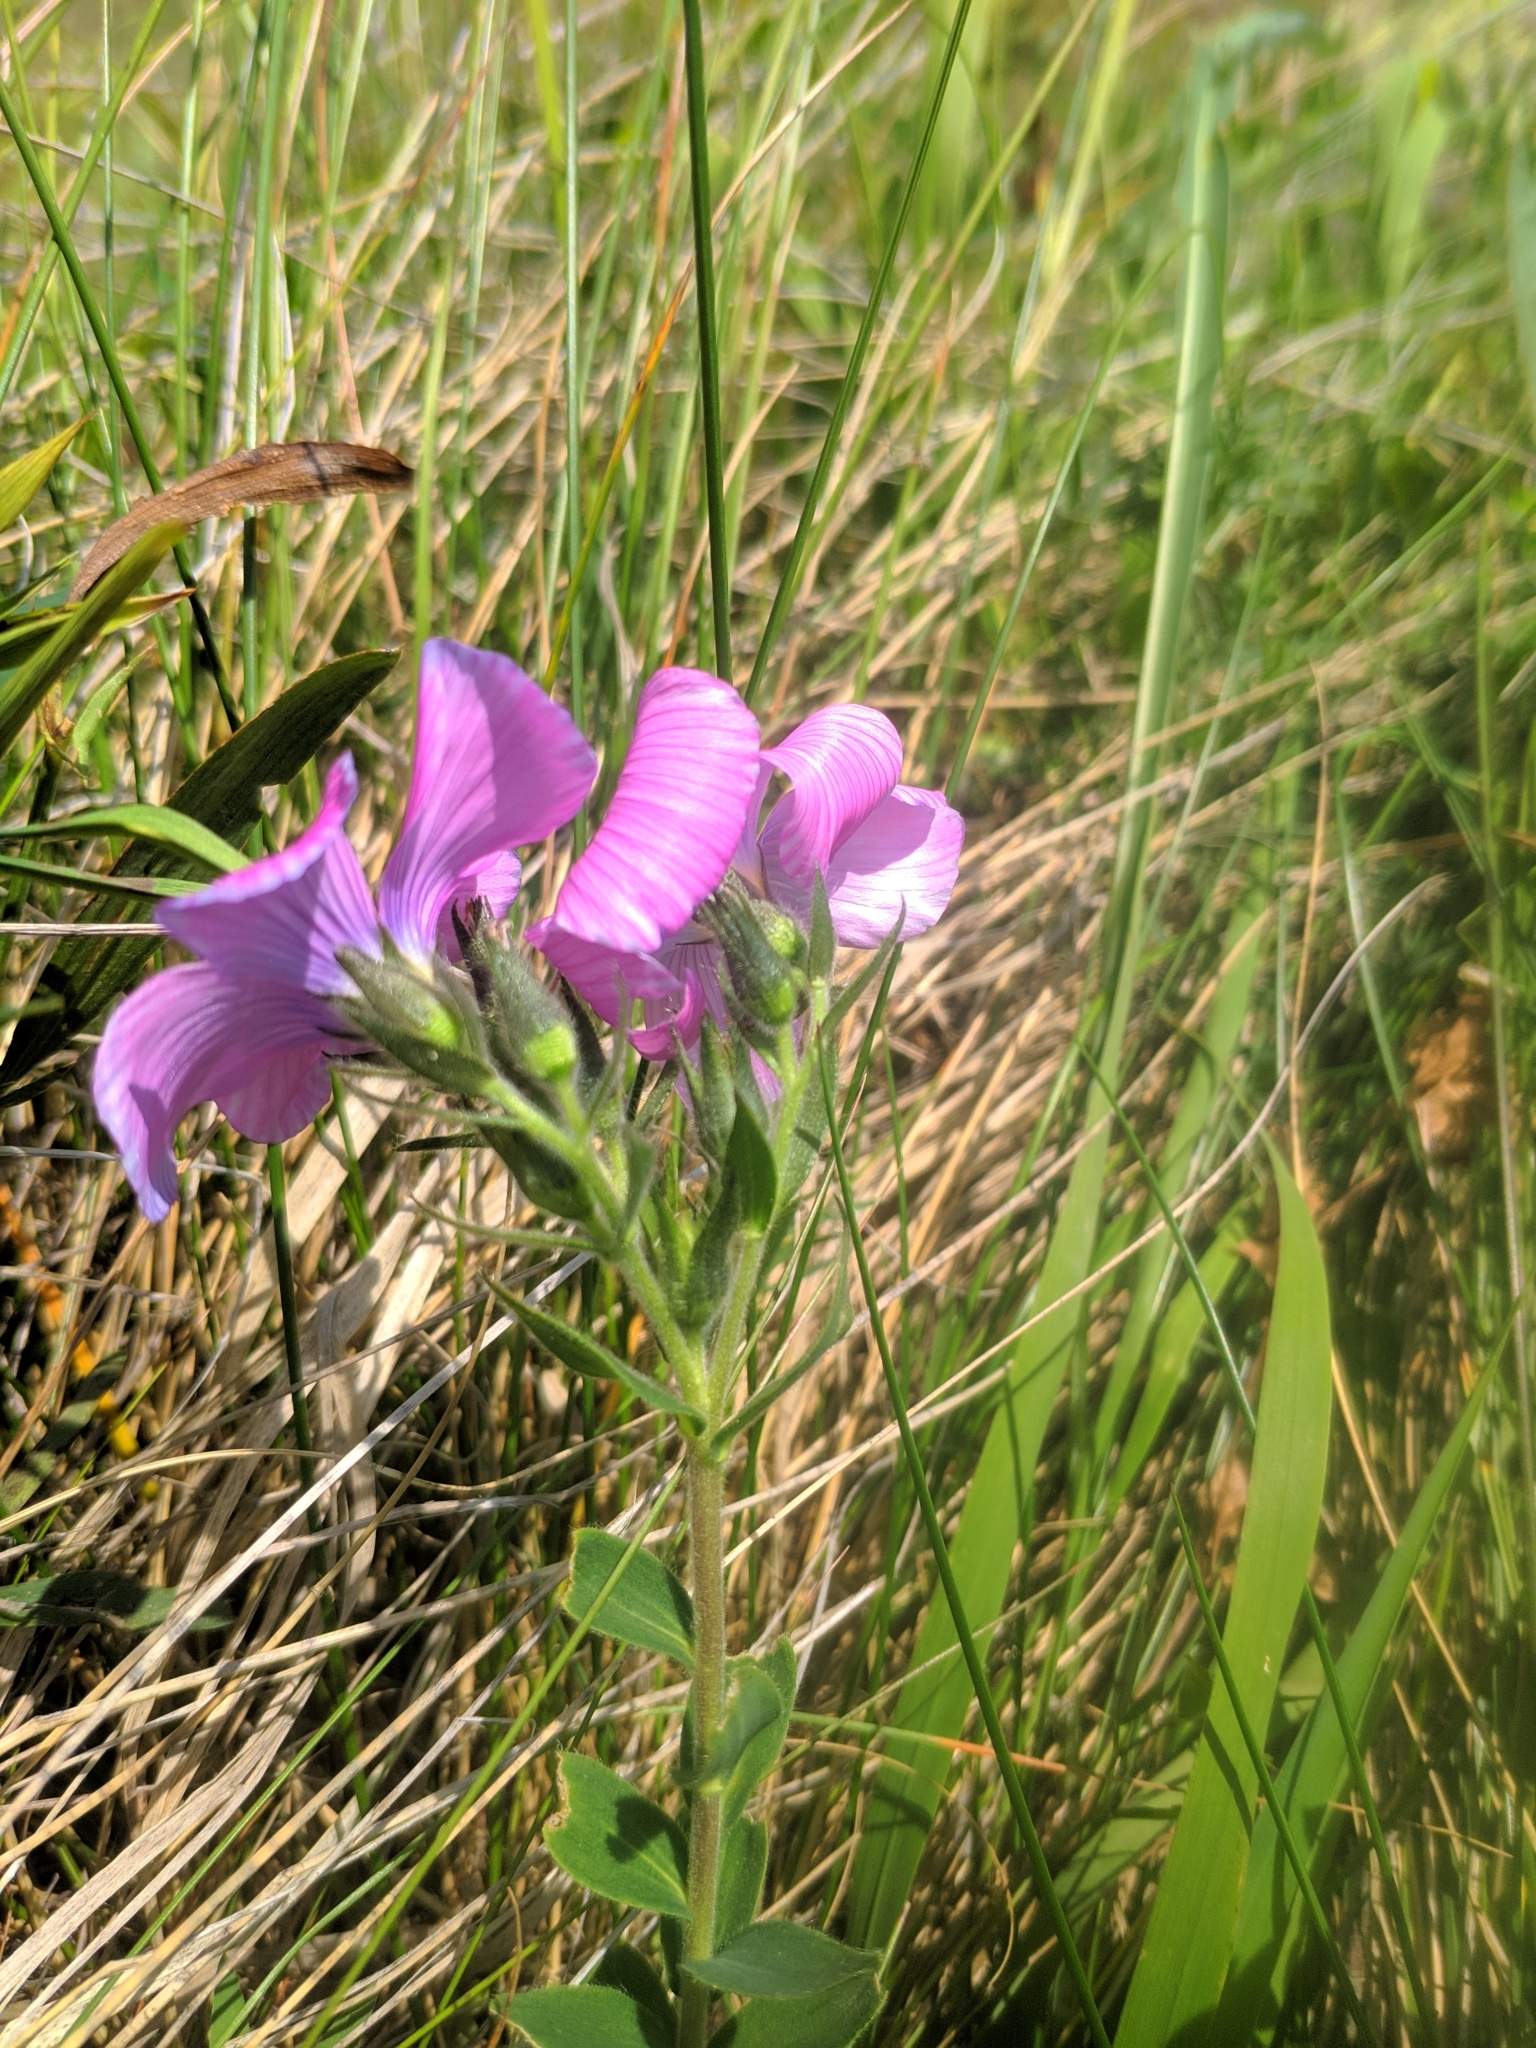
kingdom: Plantae
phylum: Tracheophyta
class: Magnoliopsida
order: Malpighiales
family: Linaceae
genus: Linum
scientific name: Linum hypericifolium
